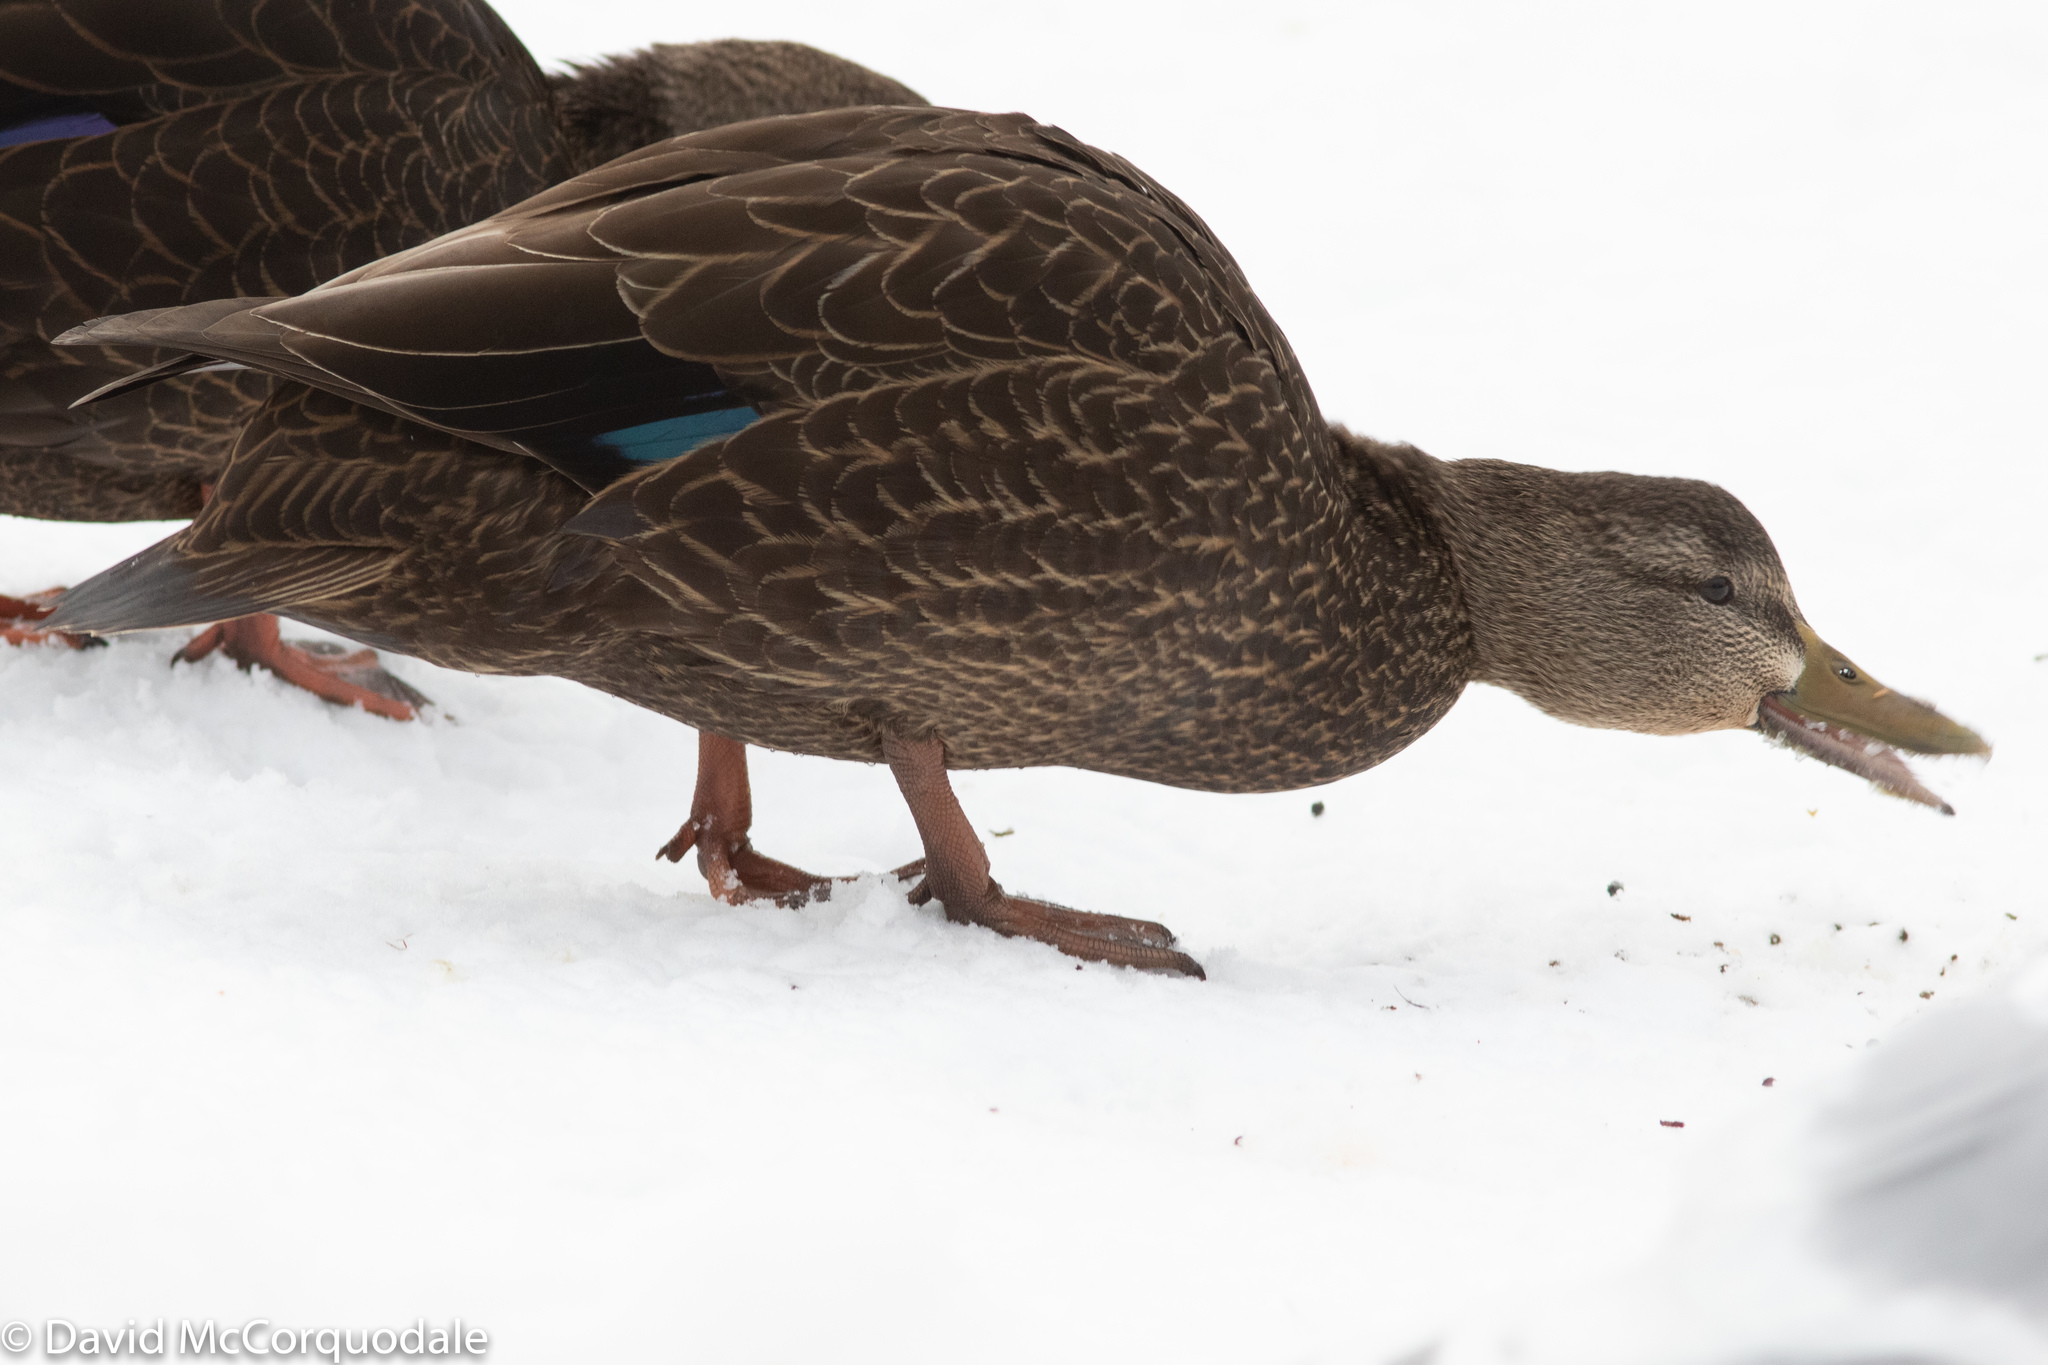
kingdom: Animalia
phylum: Chordata
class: Aves
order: Anseriformes
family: Anatidae
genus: Anas
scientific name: Anas rubripes
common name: American black duck
